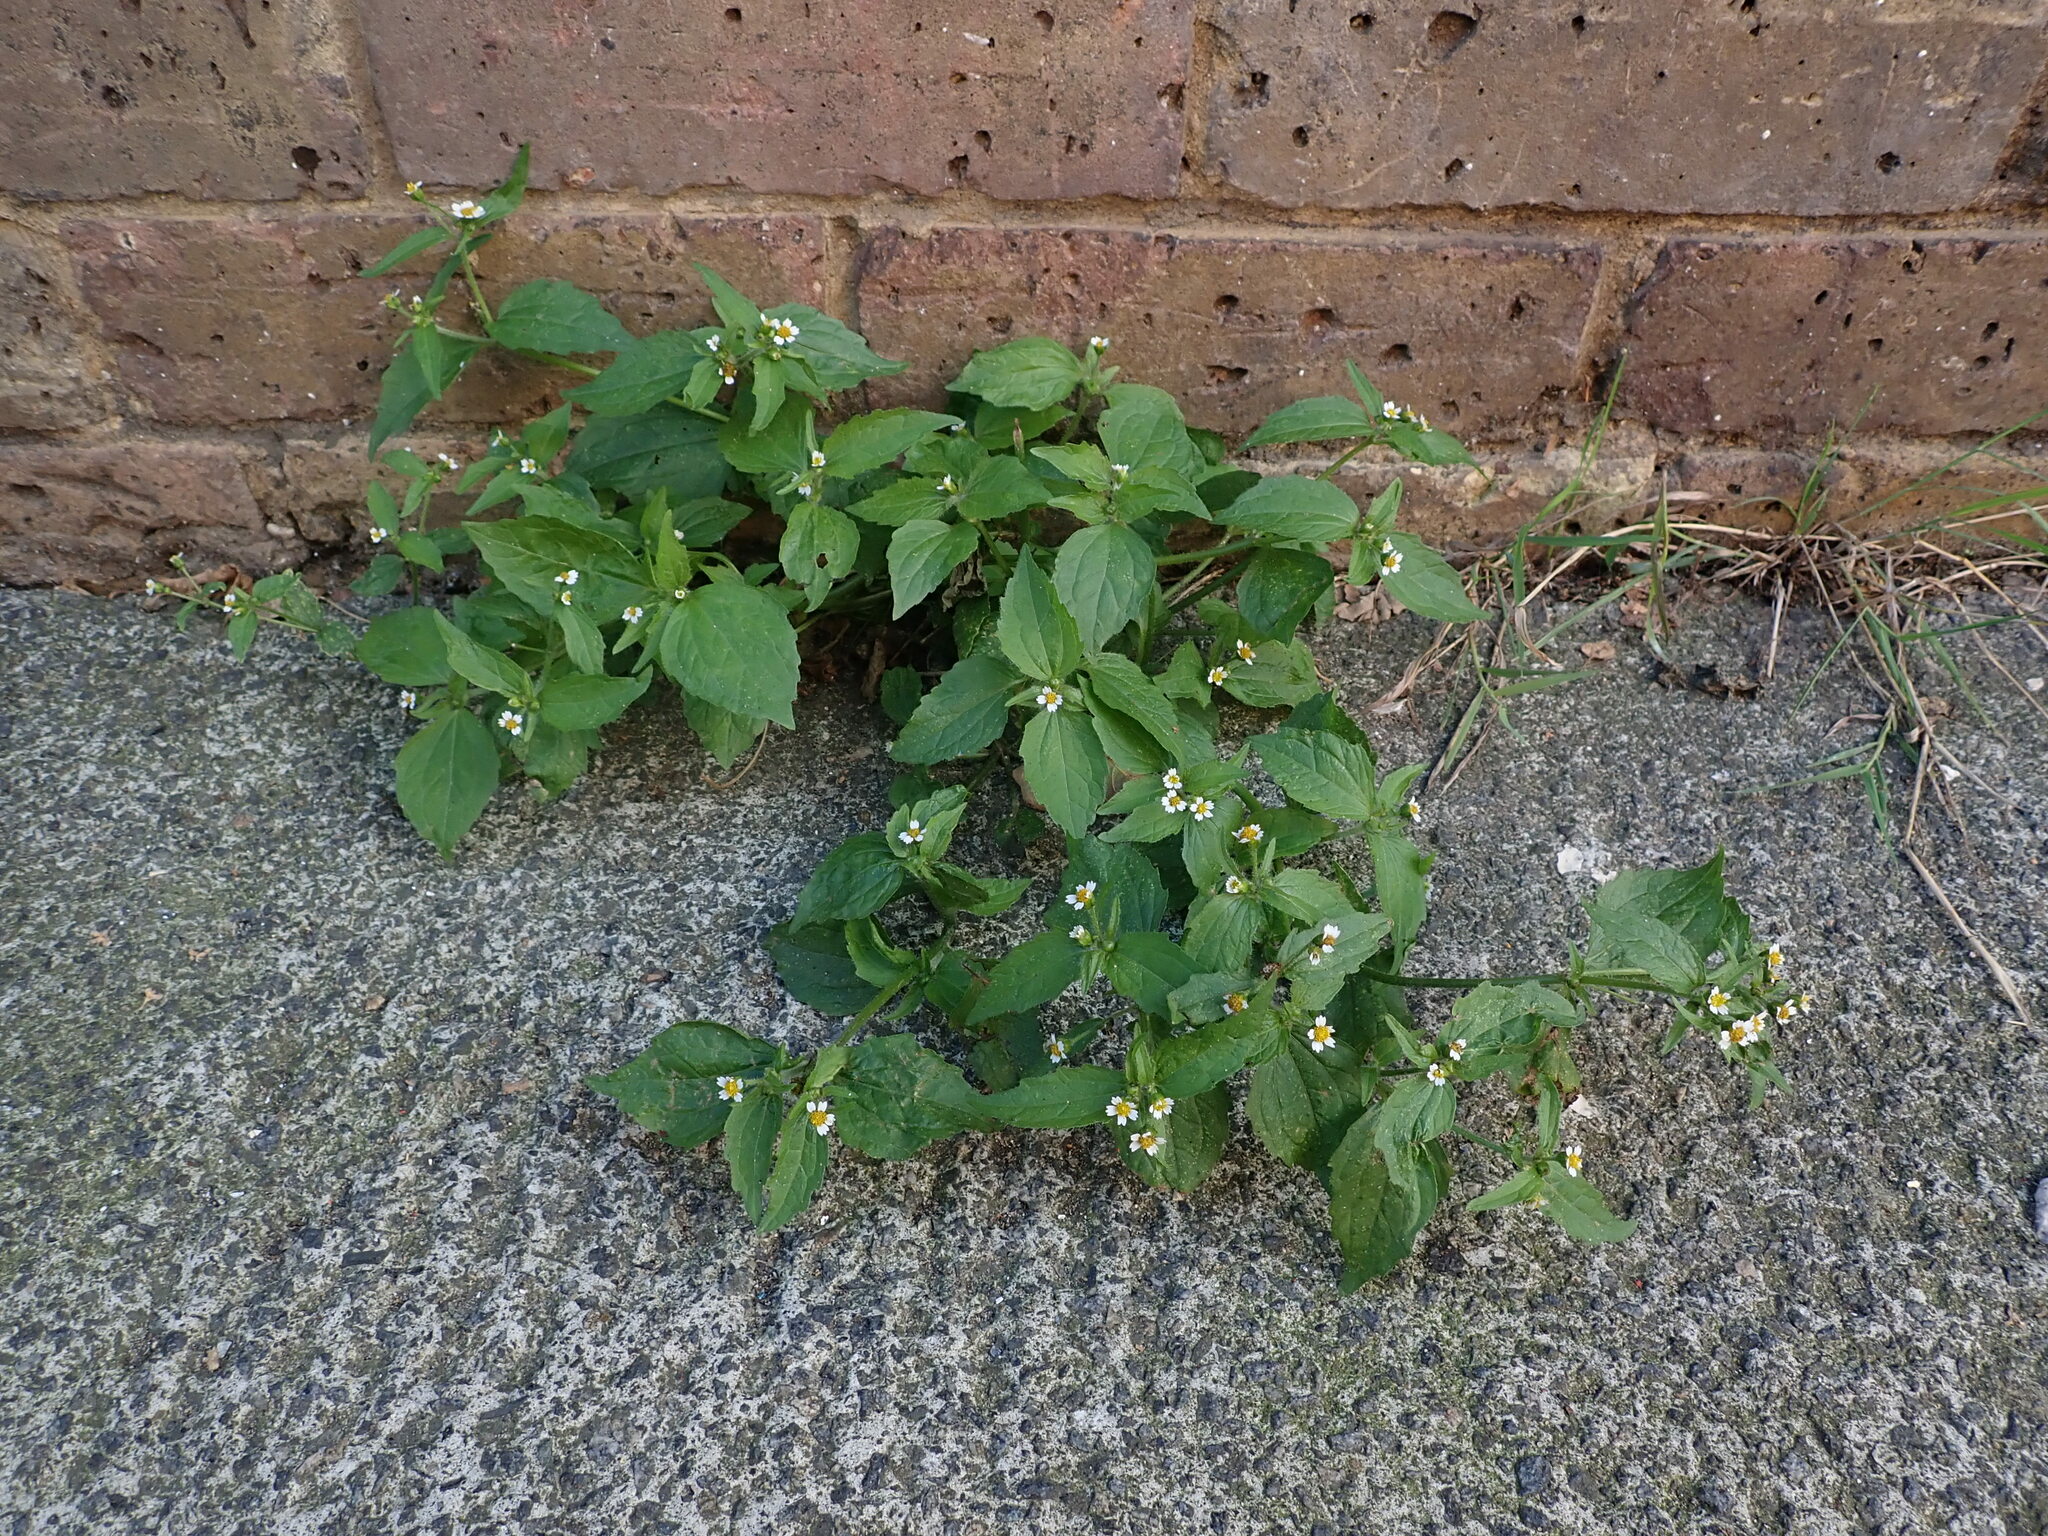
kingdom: Plantae
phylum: Tracheophyta
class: Magnoliopsida
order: Asterales
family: Asteraceae
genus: Galinsoga
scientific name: Galinsoga quadriradiata
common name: Shaggy soldier
